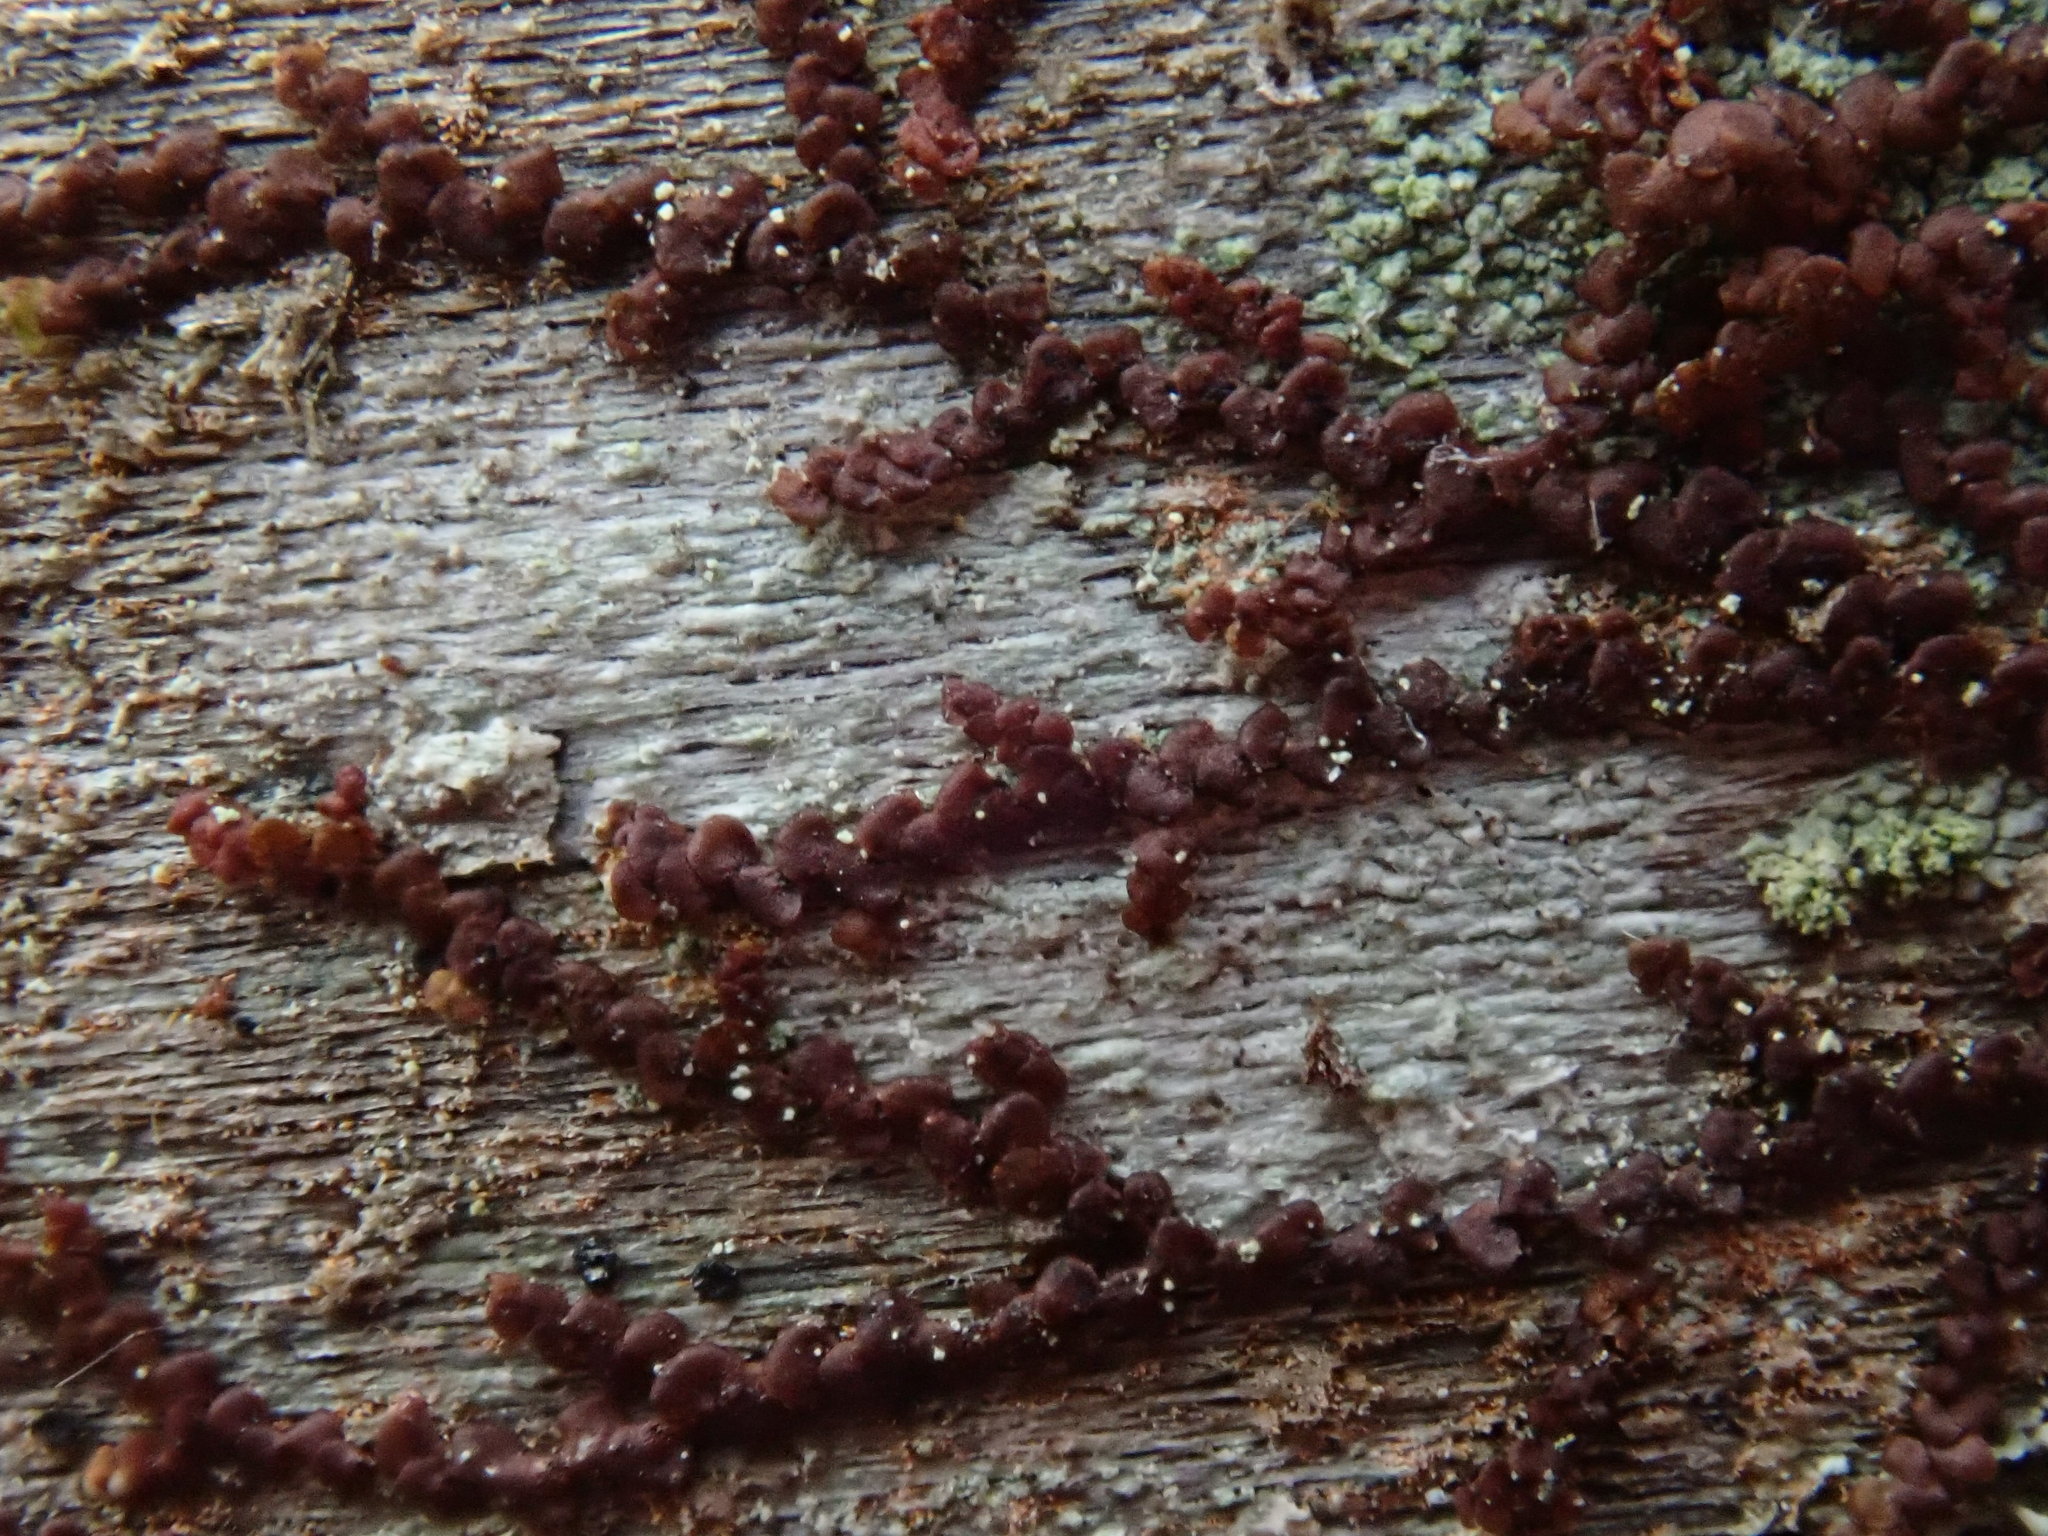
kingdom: Plantae
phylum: Marchantiophyta
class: Jungermanniopsida
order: Porellales
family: Frullaniaceae
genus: Frullania
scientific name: Frullania
